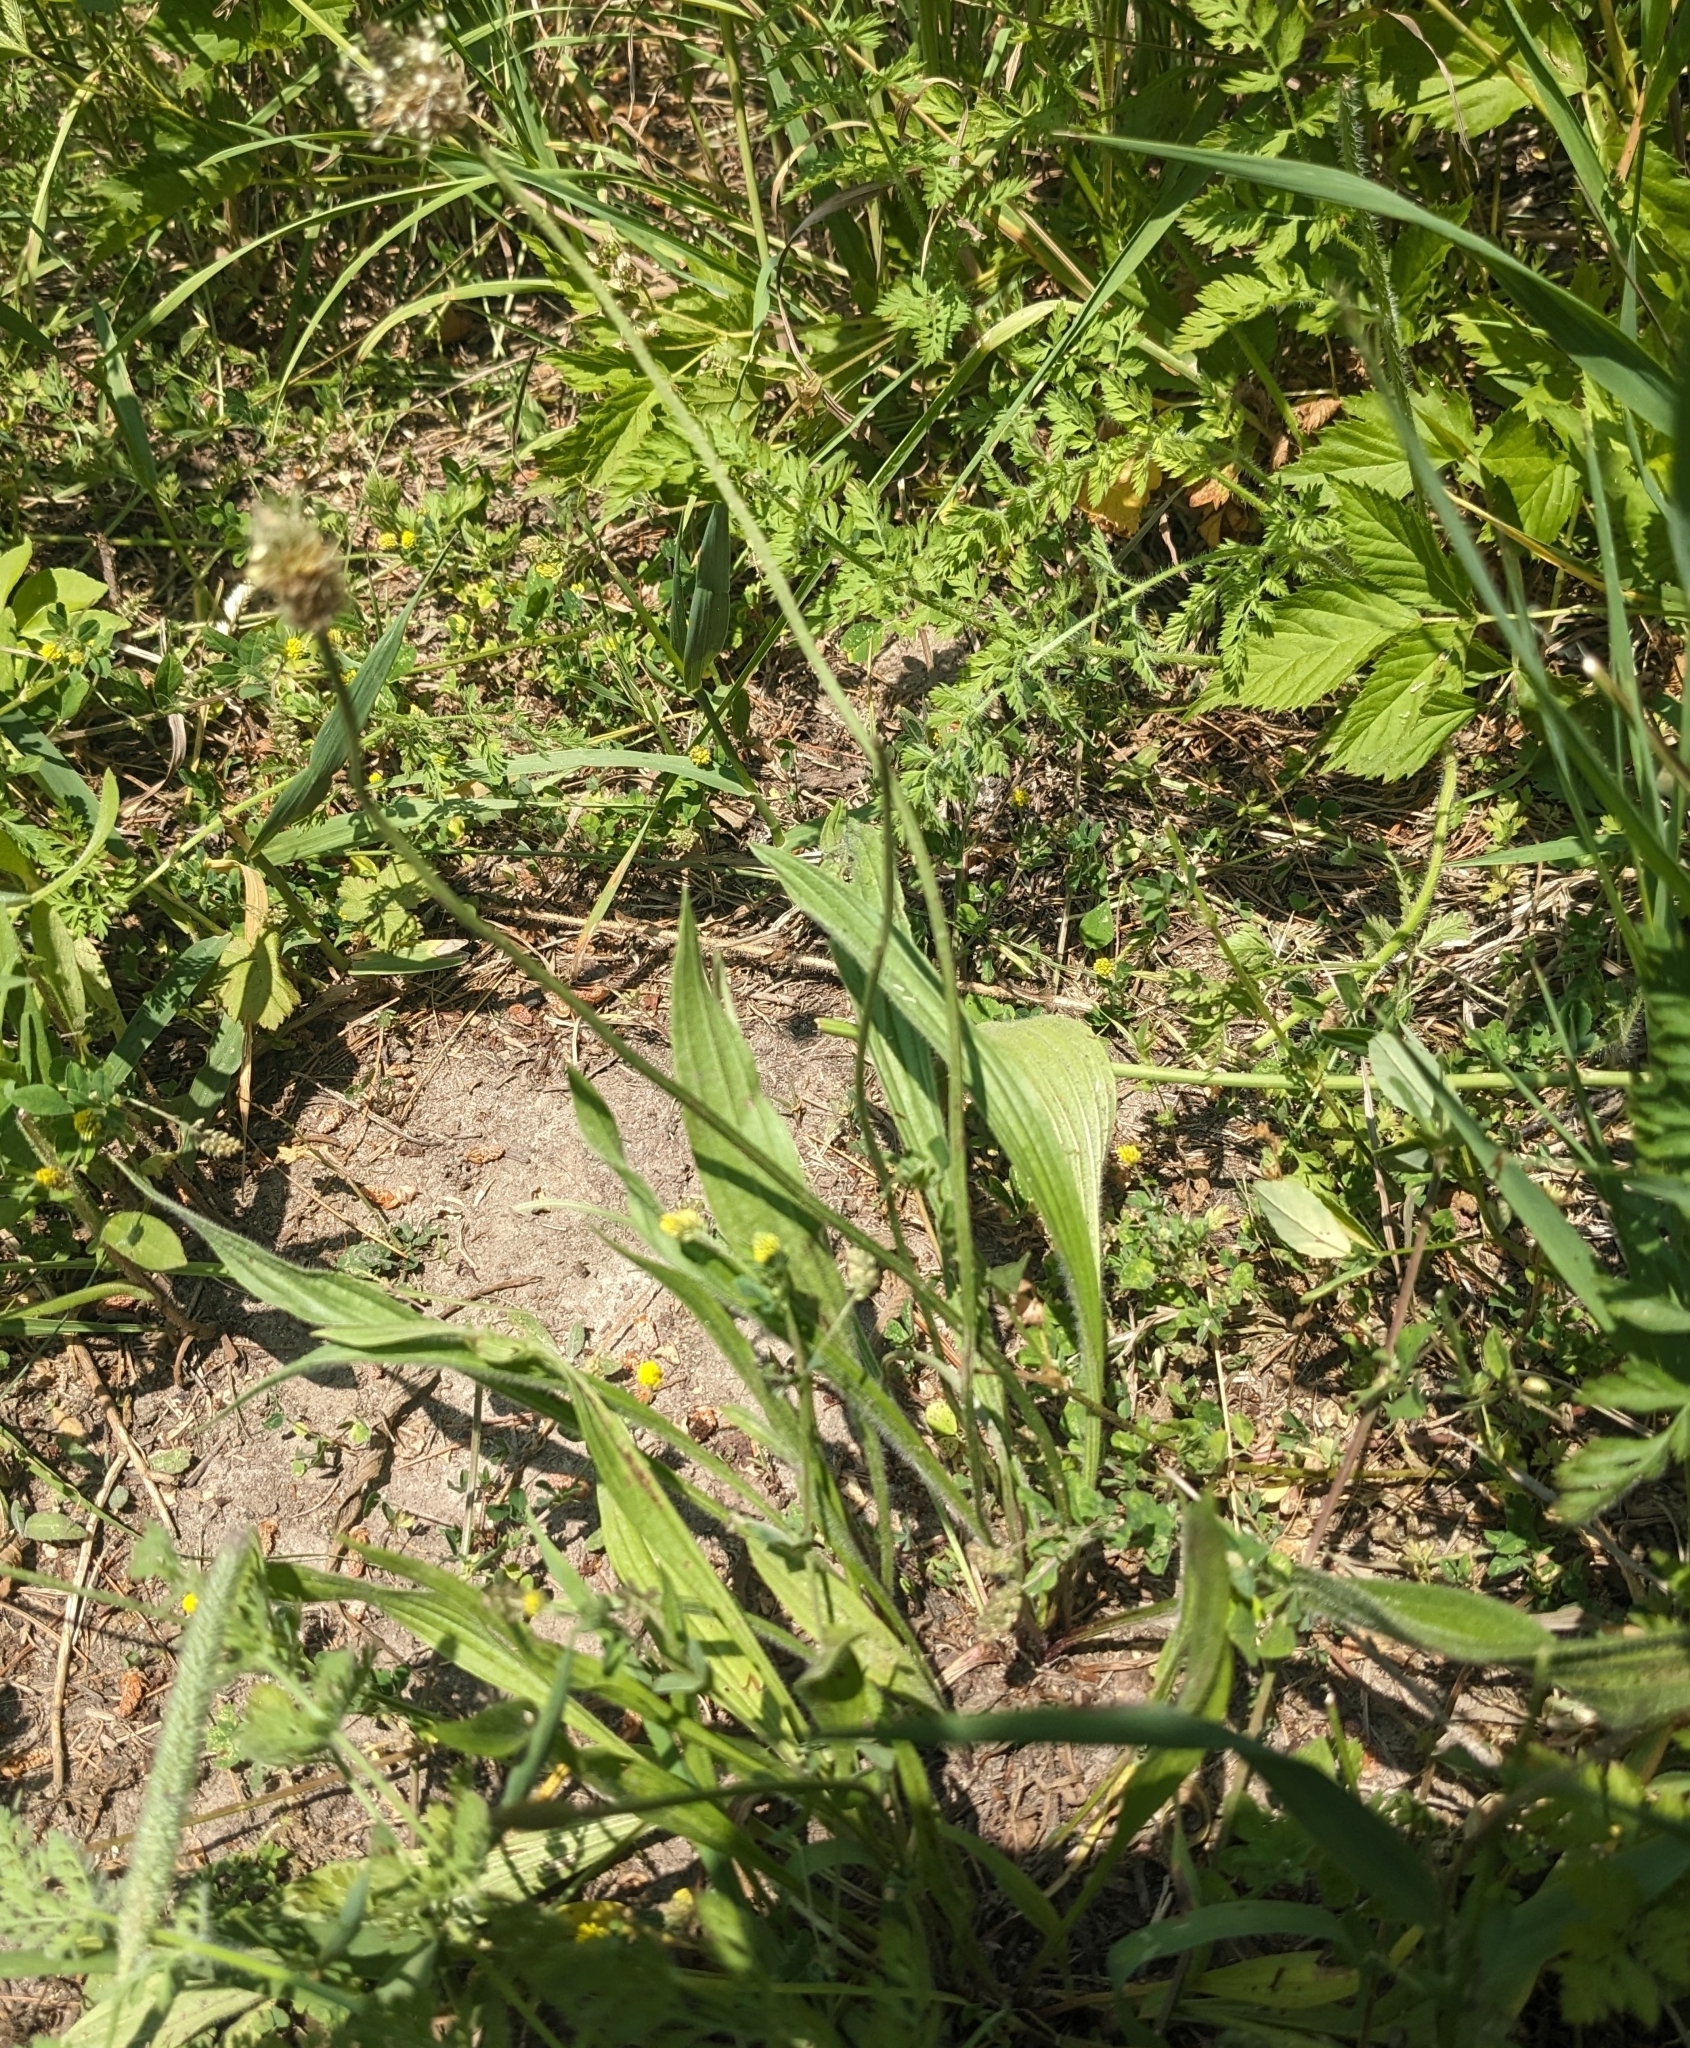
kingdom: Plantae
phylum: Tracheophyta
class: Magnoliopsida
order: Lamiales
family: Plantaginaceae
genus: Plantago
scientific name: Plantago lanceolata
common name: Ribwort plantain
